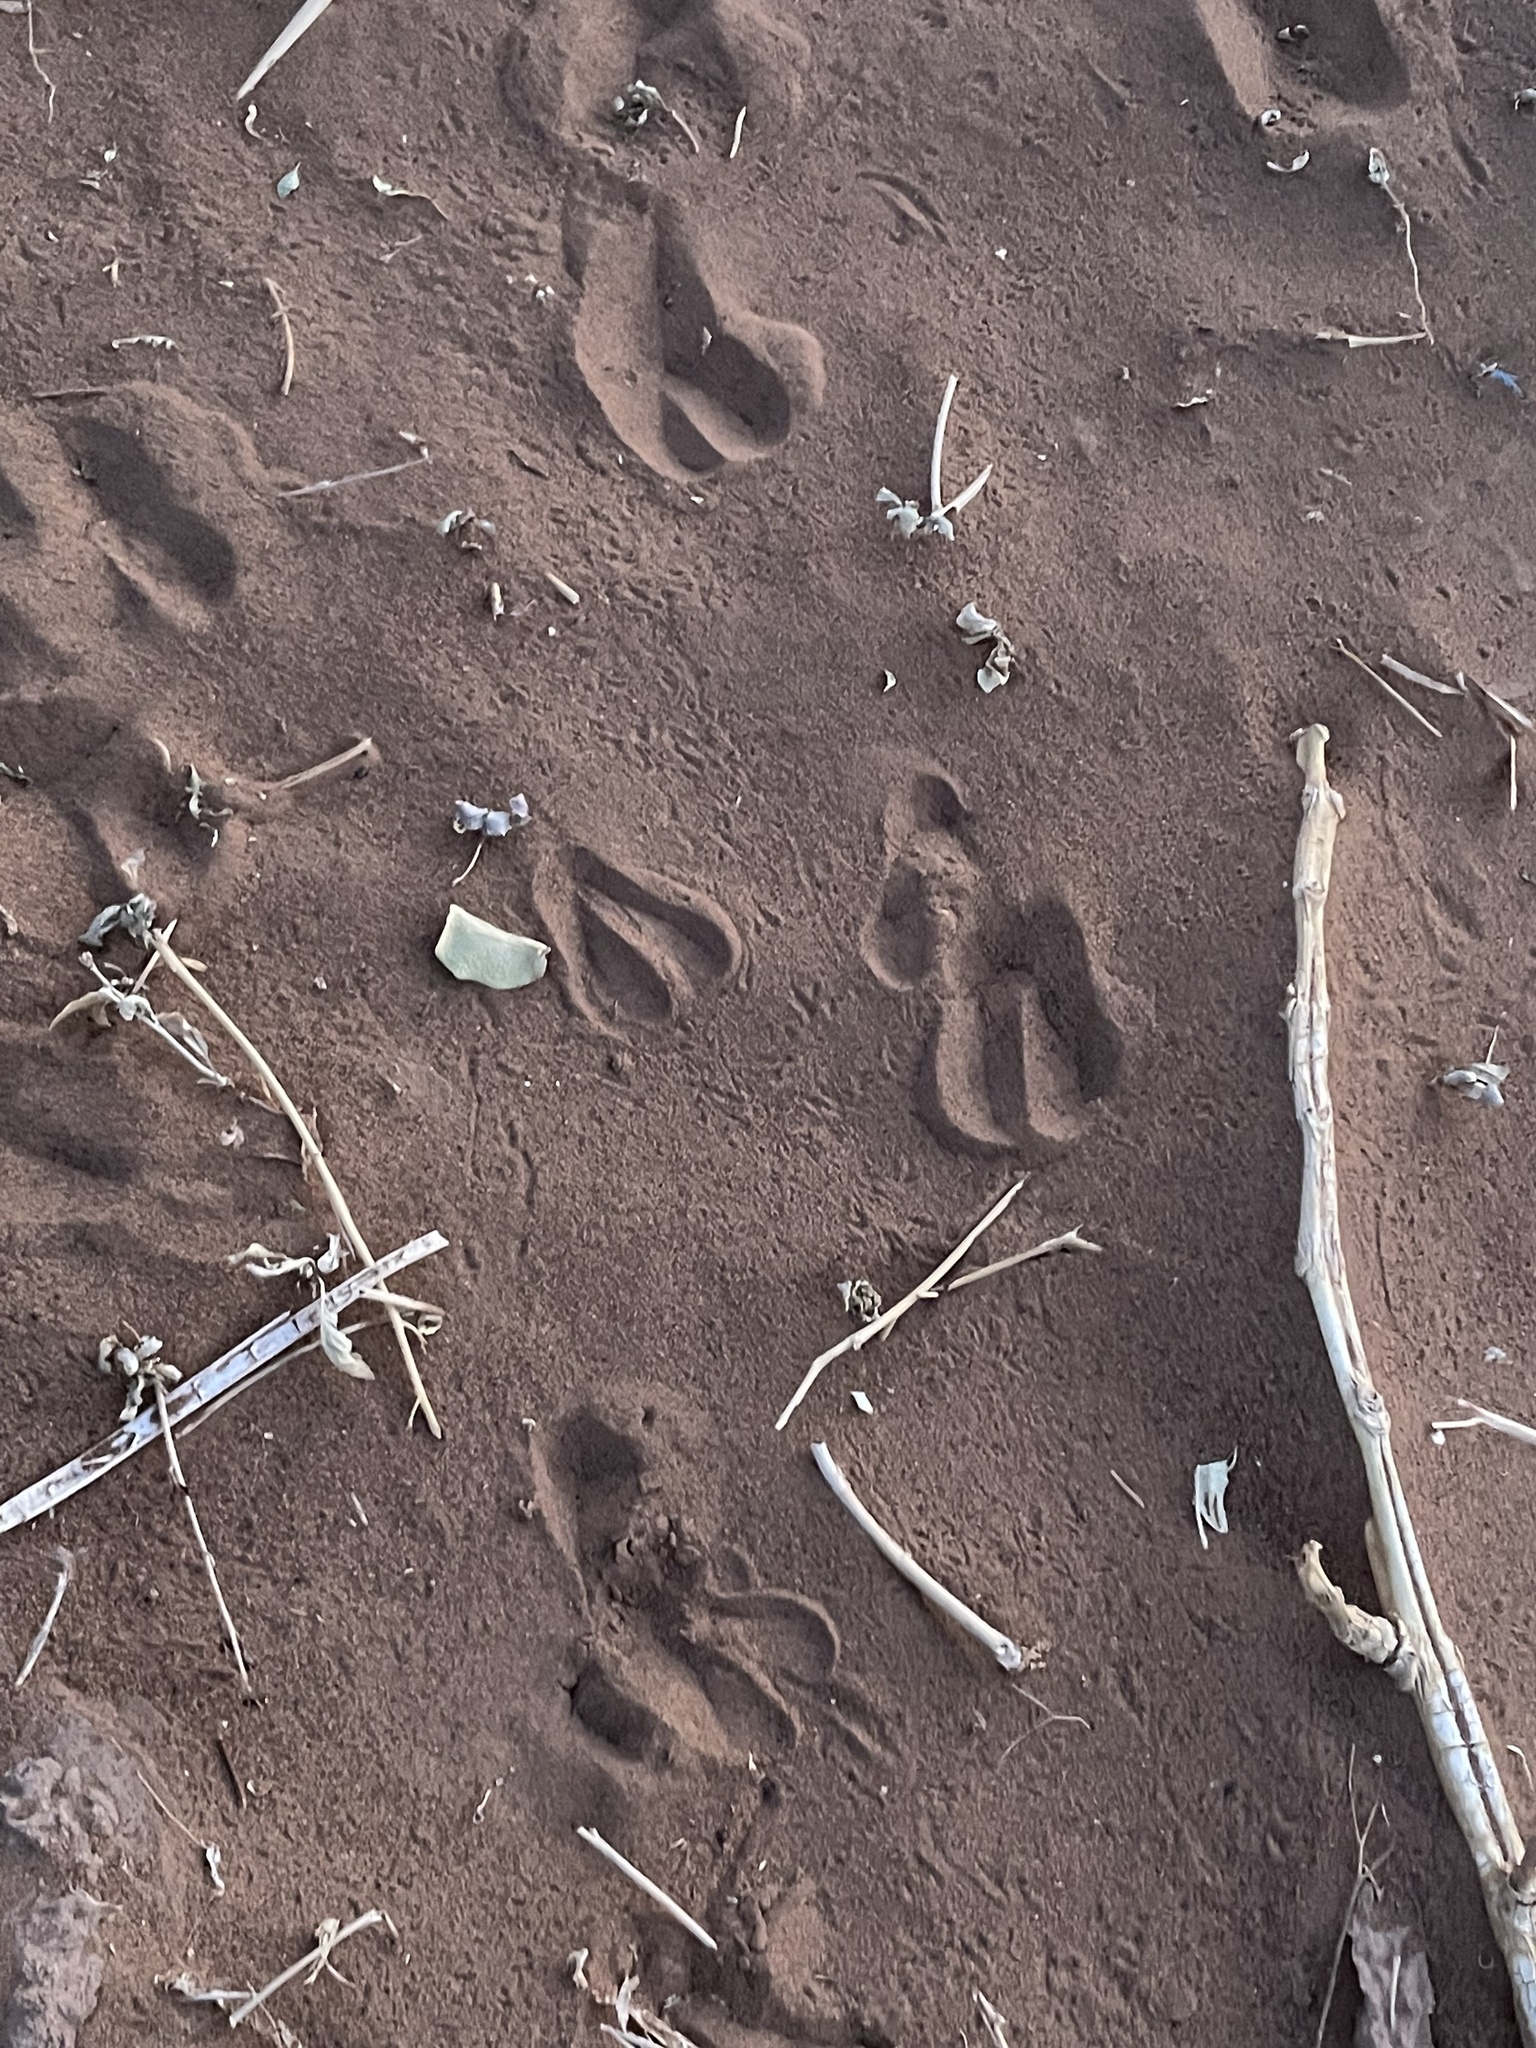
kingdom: Animalia
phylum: Chordata
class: Mammalia
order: Artiodactyla
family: Camelidae
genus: Camelus
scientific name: Camelus dromedarius
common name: One-humped camel
